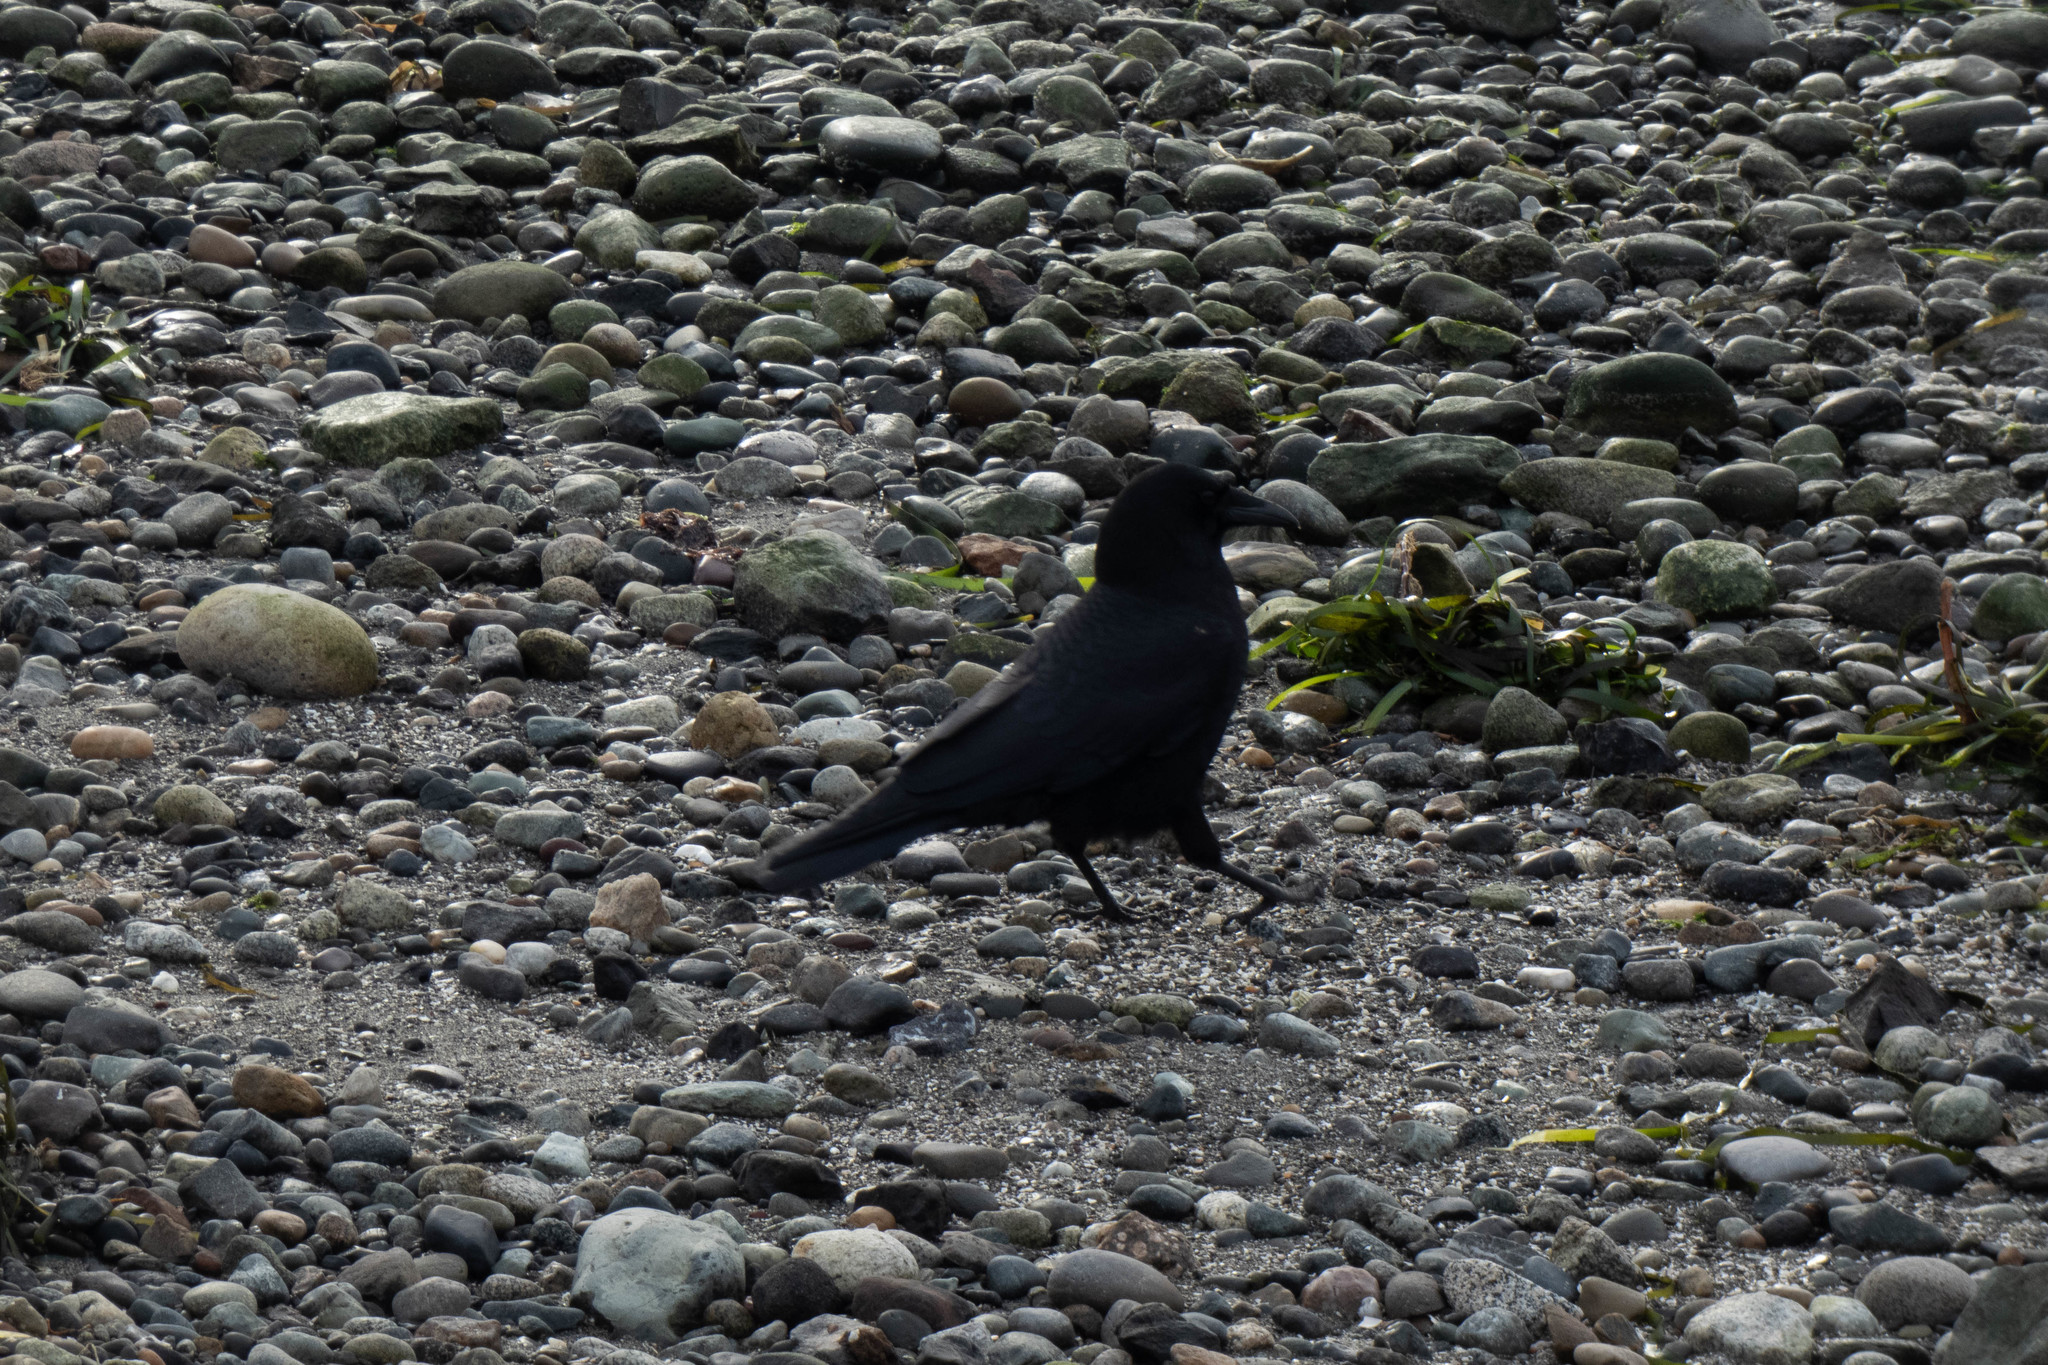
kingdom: Animalia
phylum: Chordata
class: Aves
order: Passeriformes
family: Corvidae
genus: Corvus
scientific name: Corvus brachyrhynchos
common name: American crow
